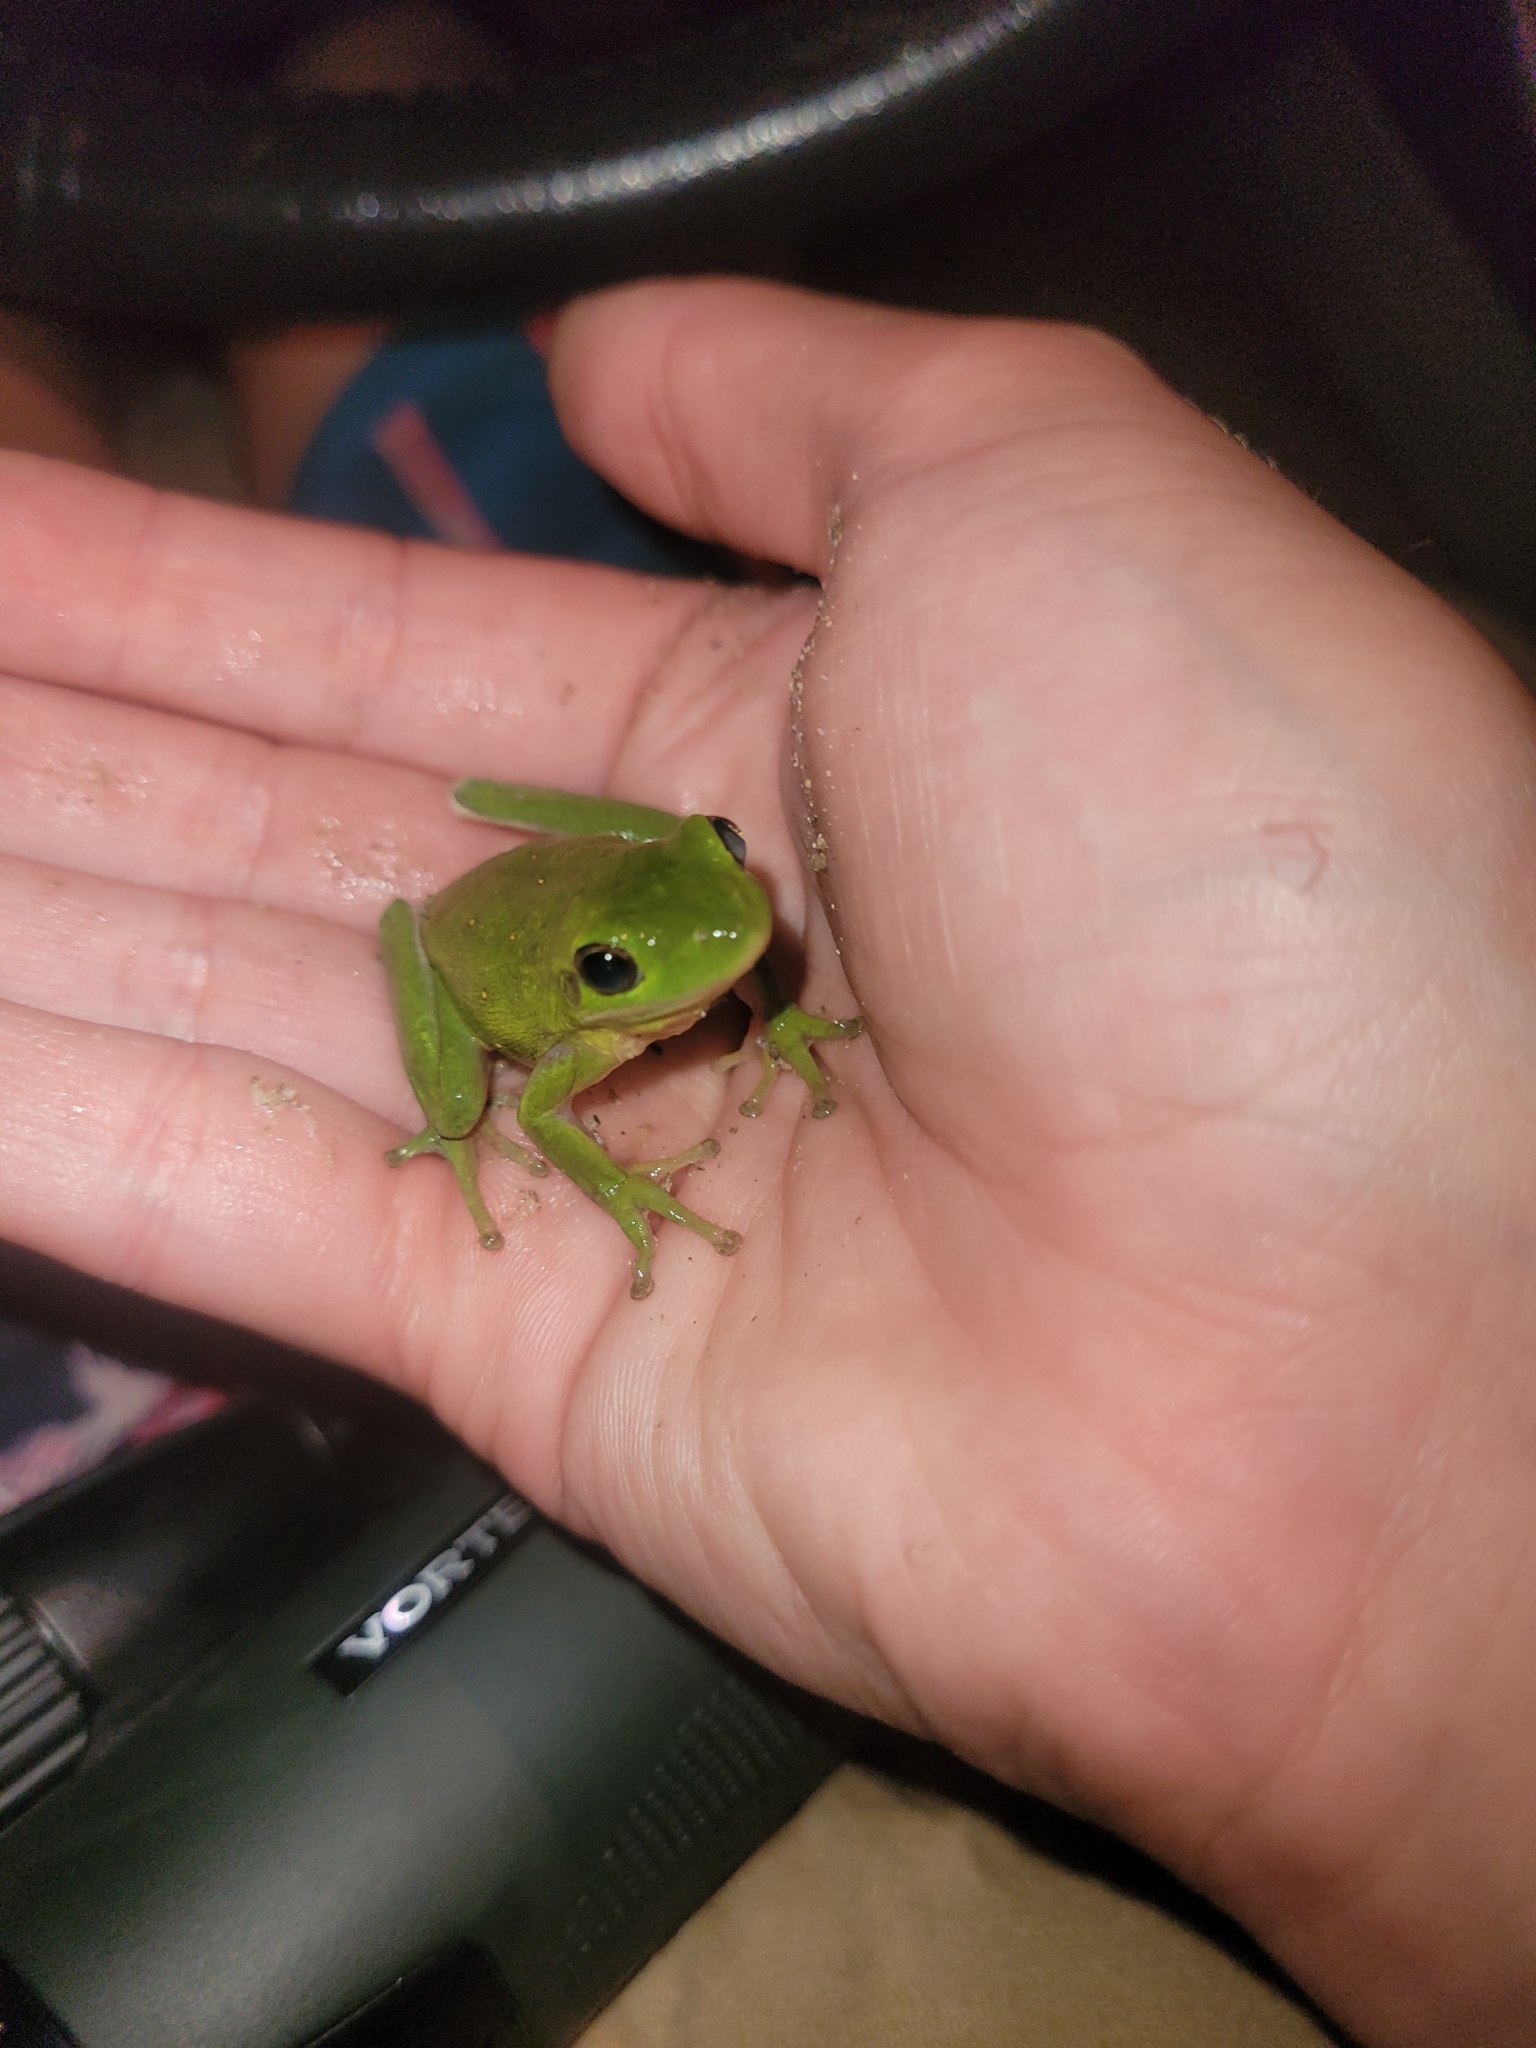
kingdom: Animalia
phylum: Chordata
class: Amphibia
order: Anura
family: Hylidae
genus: Dryophytes
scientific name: Dryophytes cinereus
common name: Green treefrog
